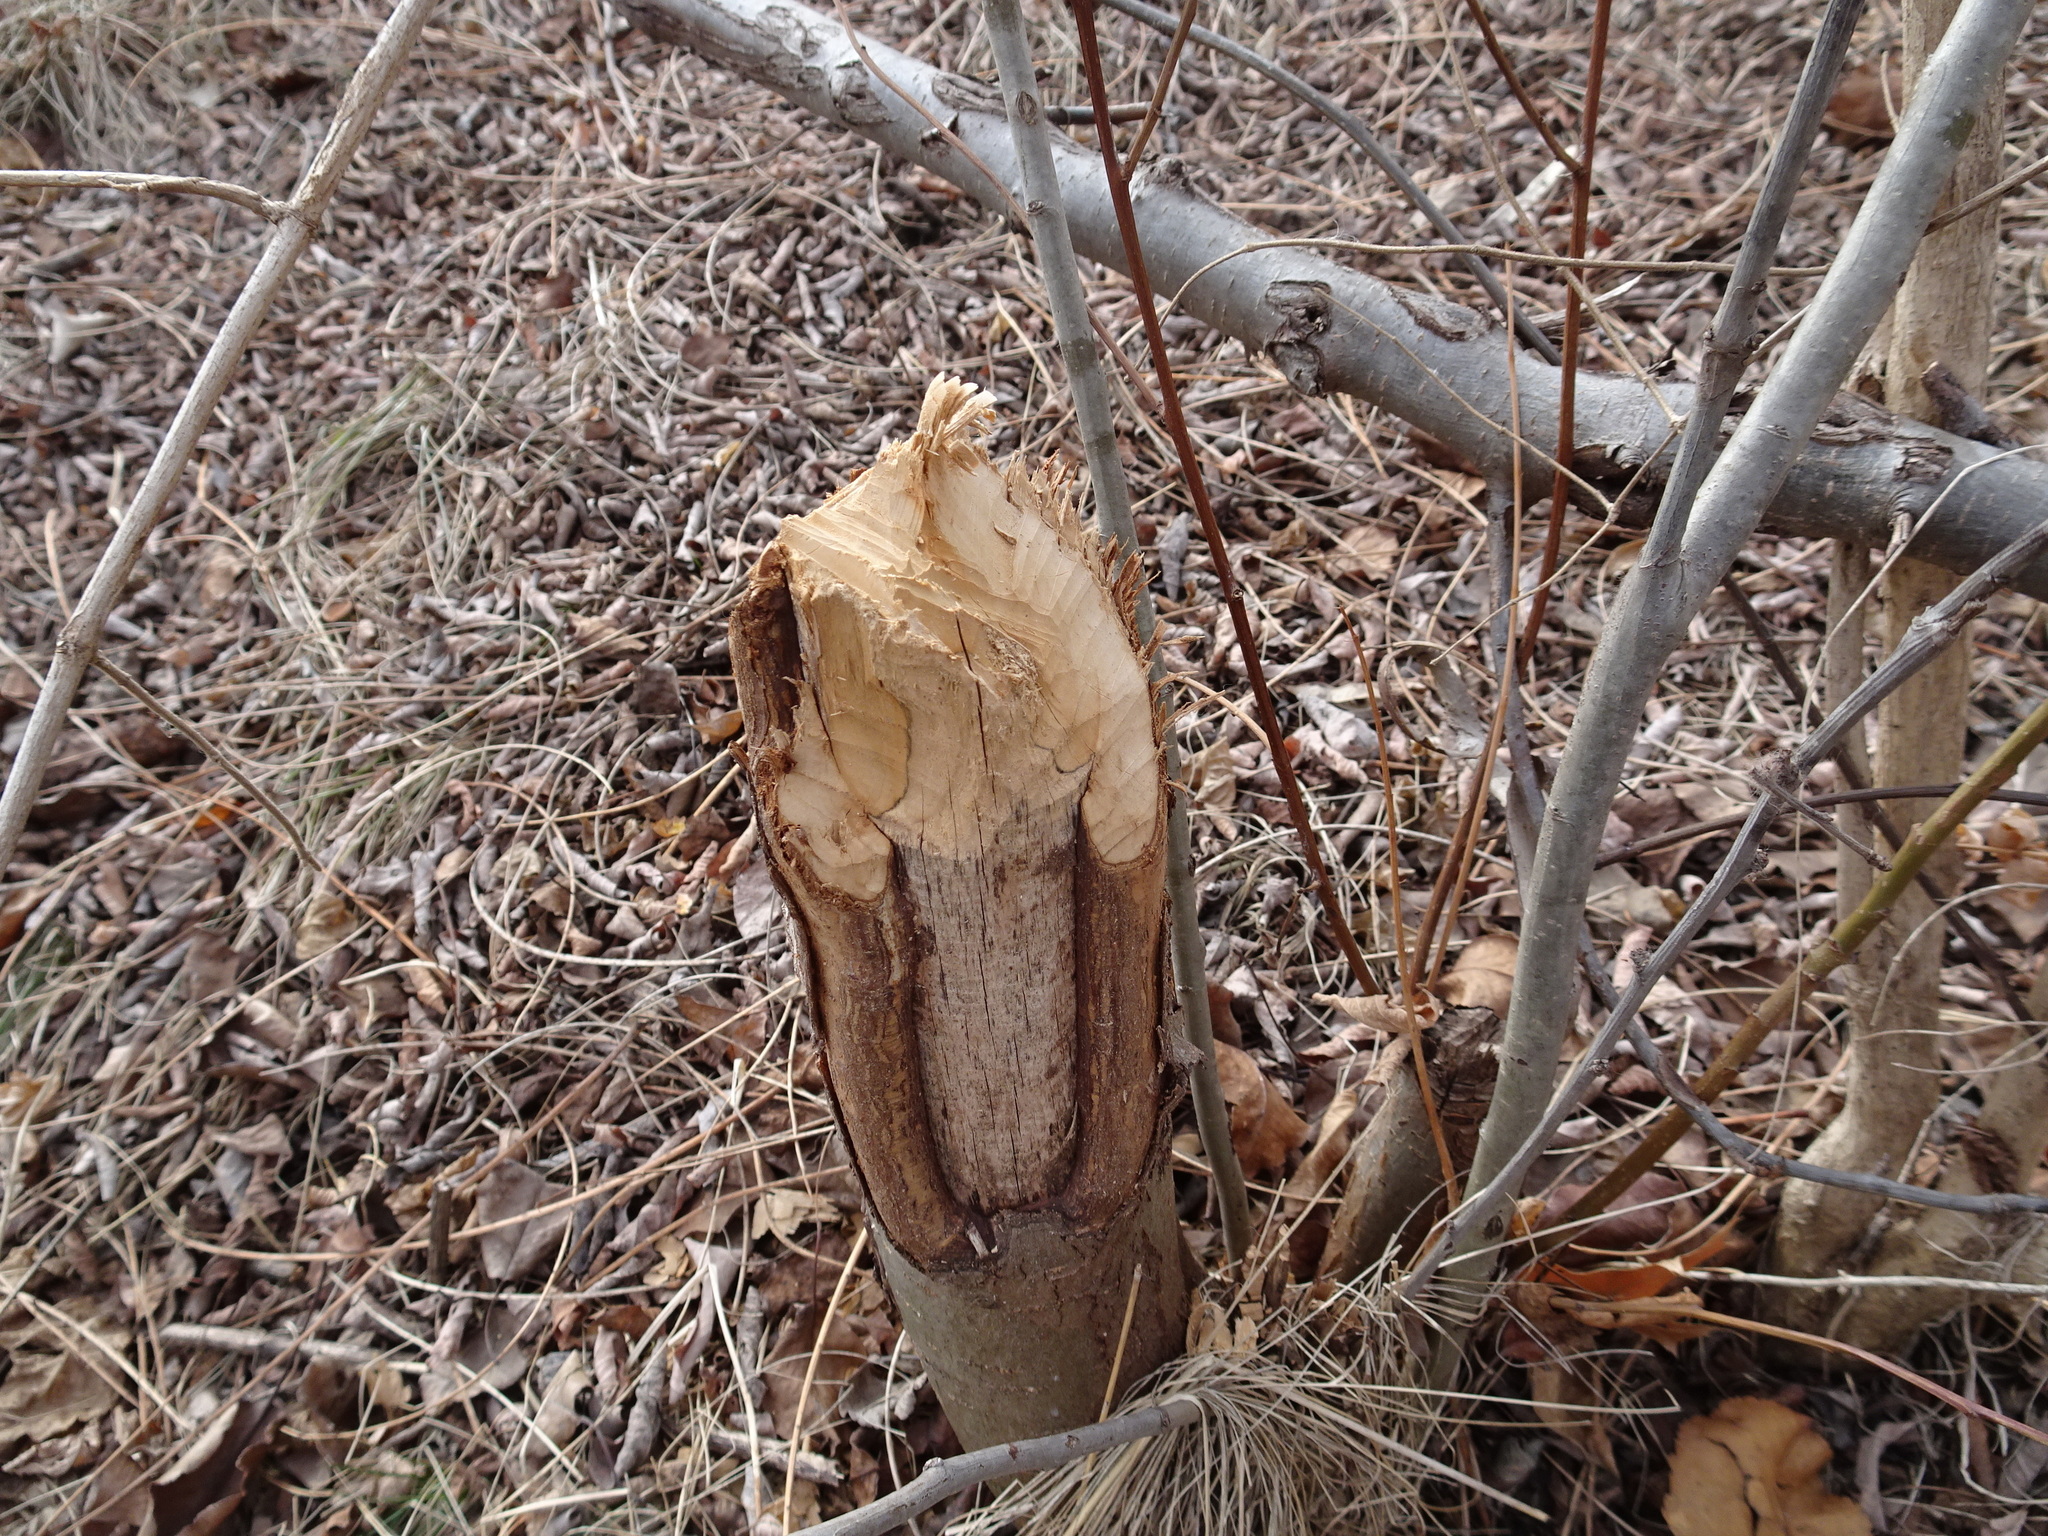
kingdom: Animalia
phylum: Chordata
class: Mammalia
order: Rodentia
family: Castoridae
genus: Castor
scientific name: Castor canadensis
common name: American beaver
